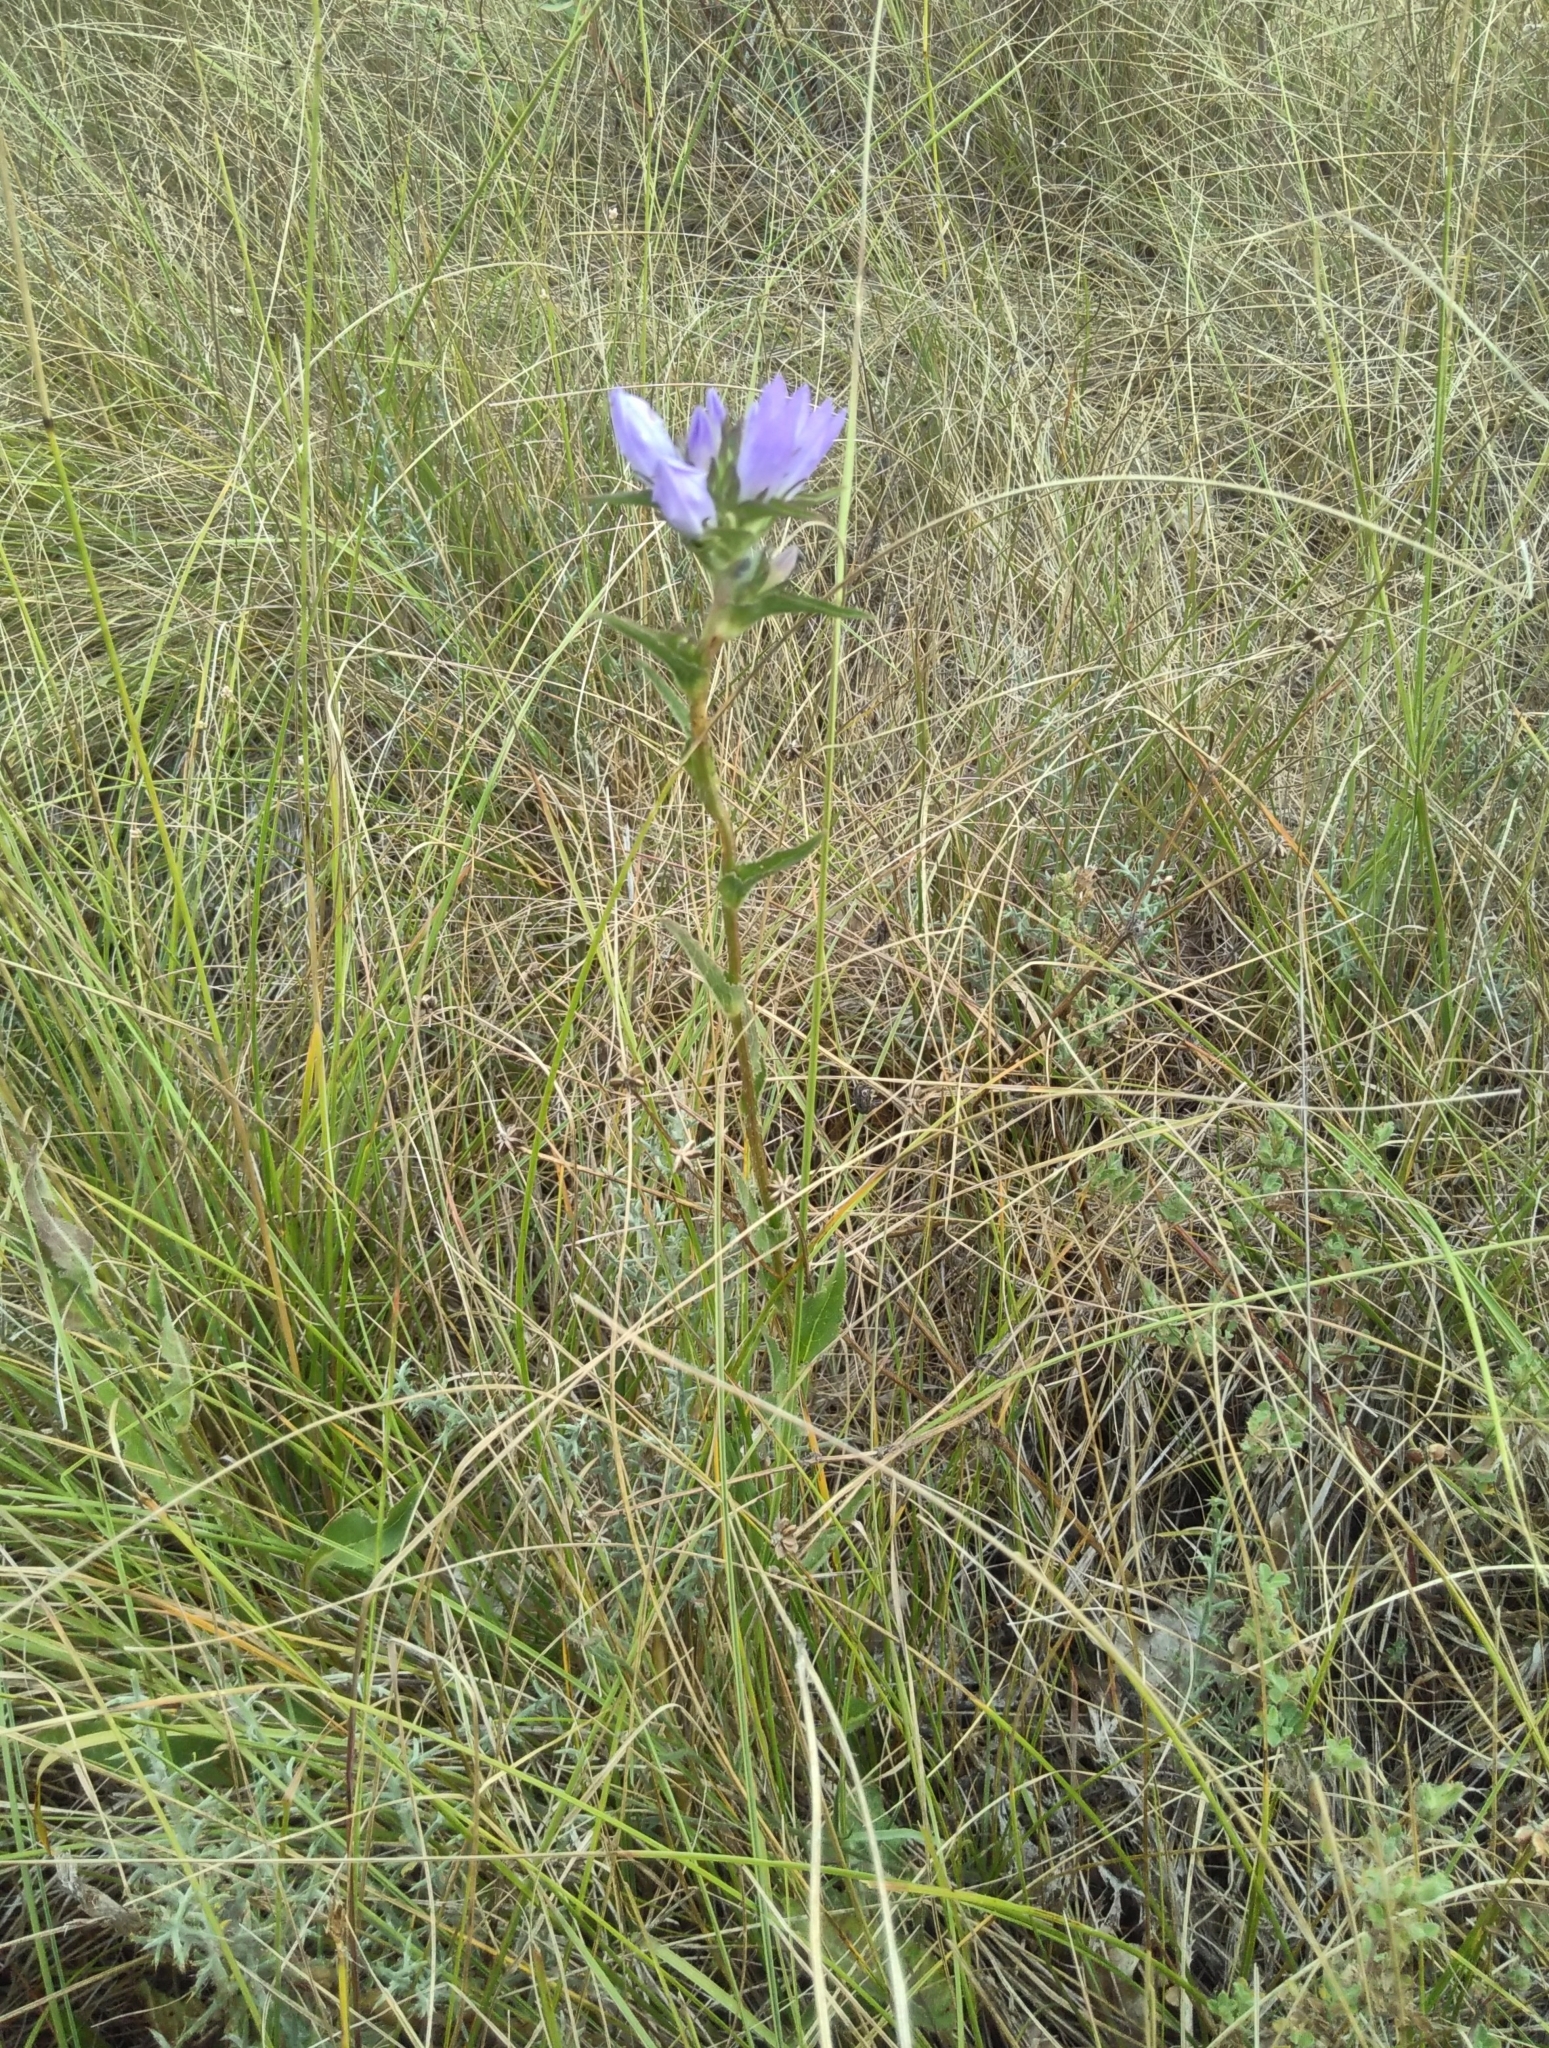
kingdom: Plantae
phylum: Tracheophyta
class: Magnoliopsida
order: Asterales
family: Campanulaceae
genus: Campanula
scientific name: Campanula glomerata
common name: Clustered bellflower
